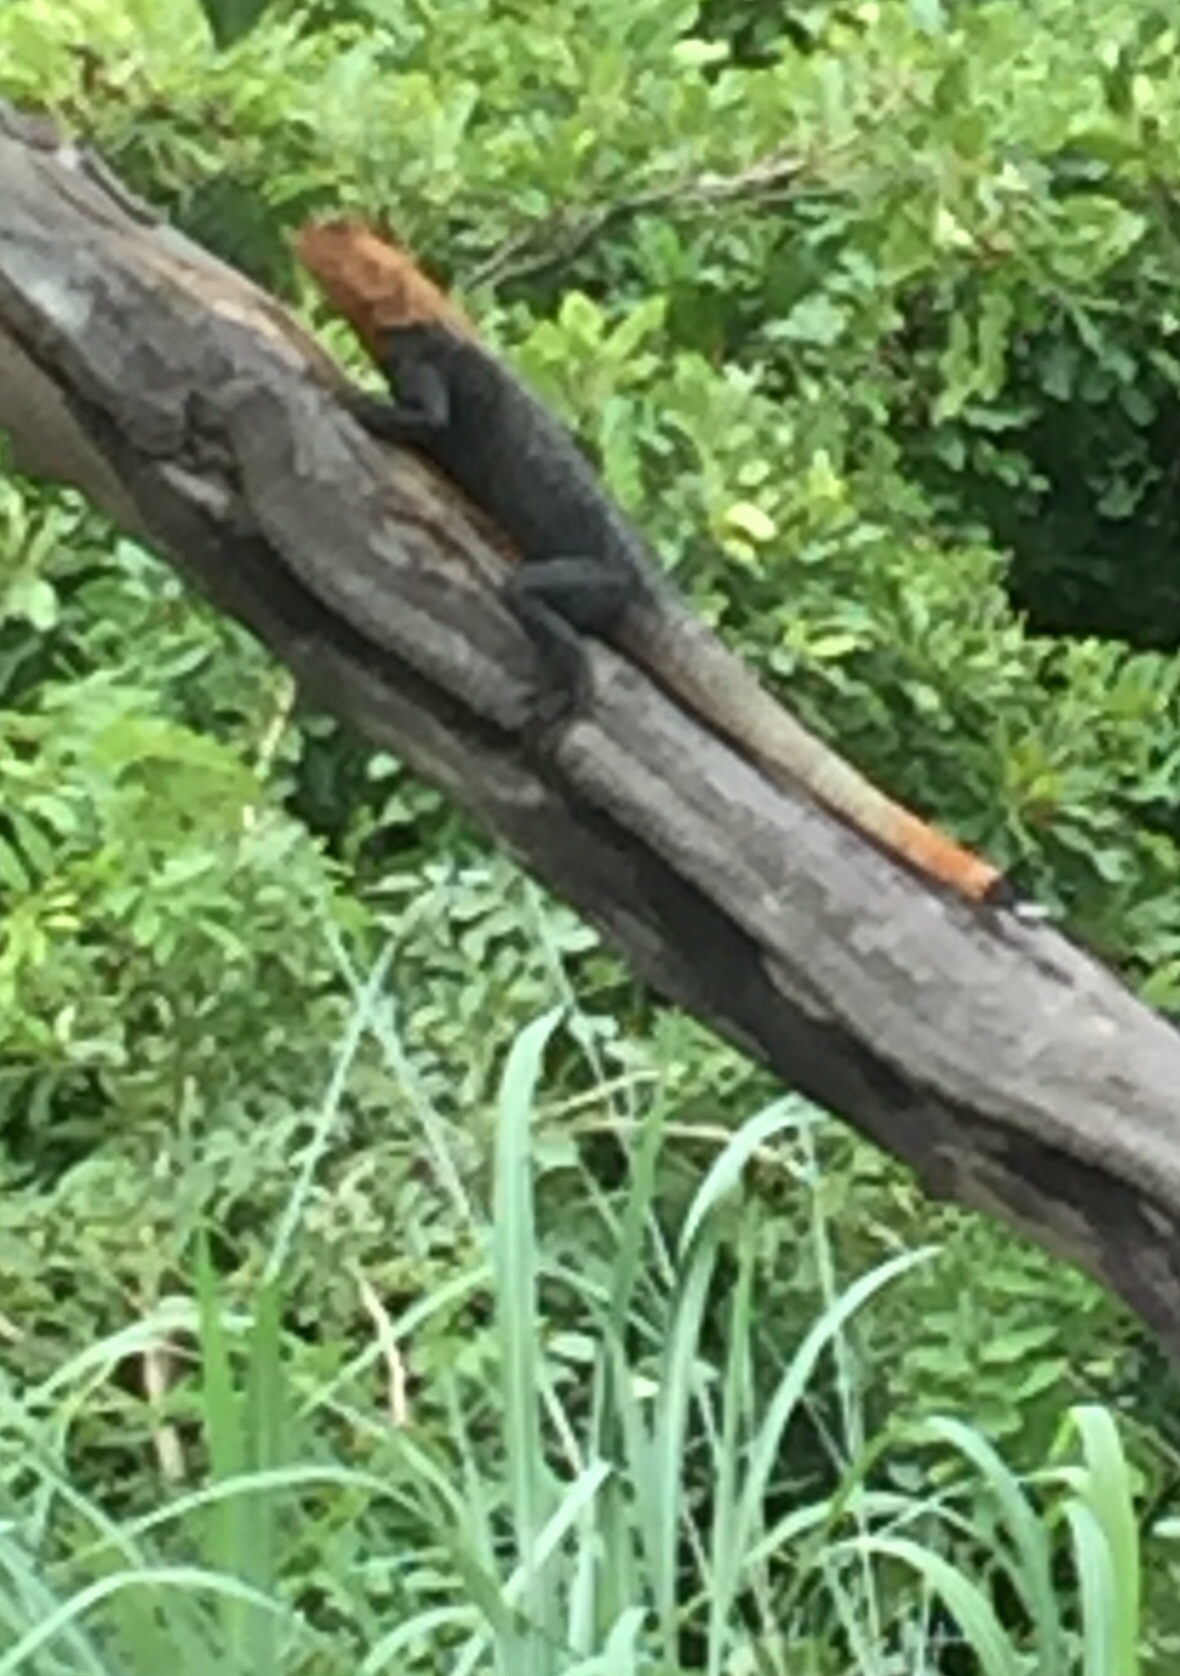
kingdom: Animalia
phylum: Chordata
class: Squamata
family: Agamidae
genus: Agama
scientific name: Agama picticauda
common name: Red-headed agama
